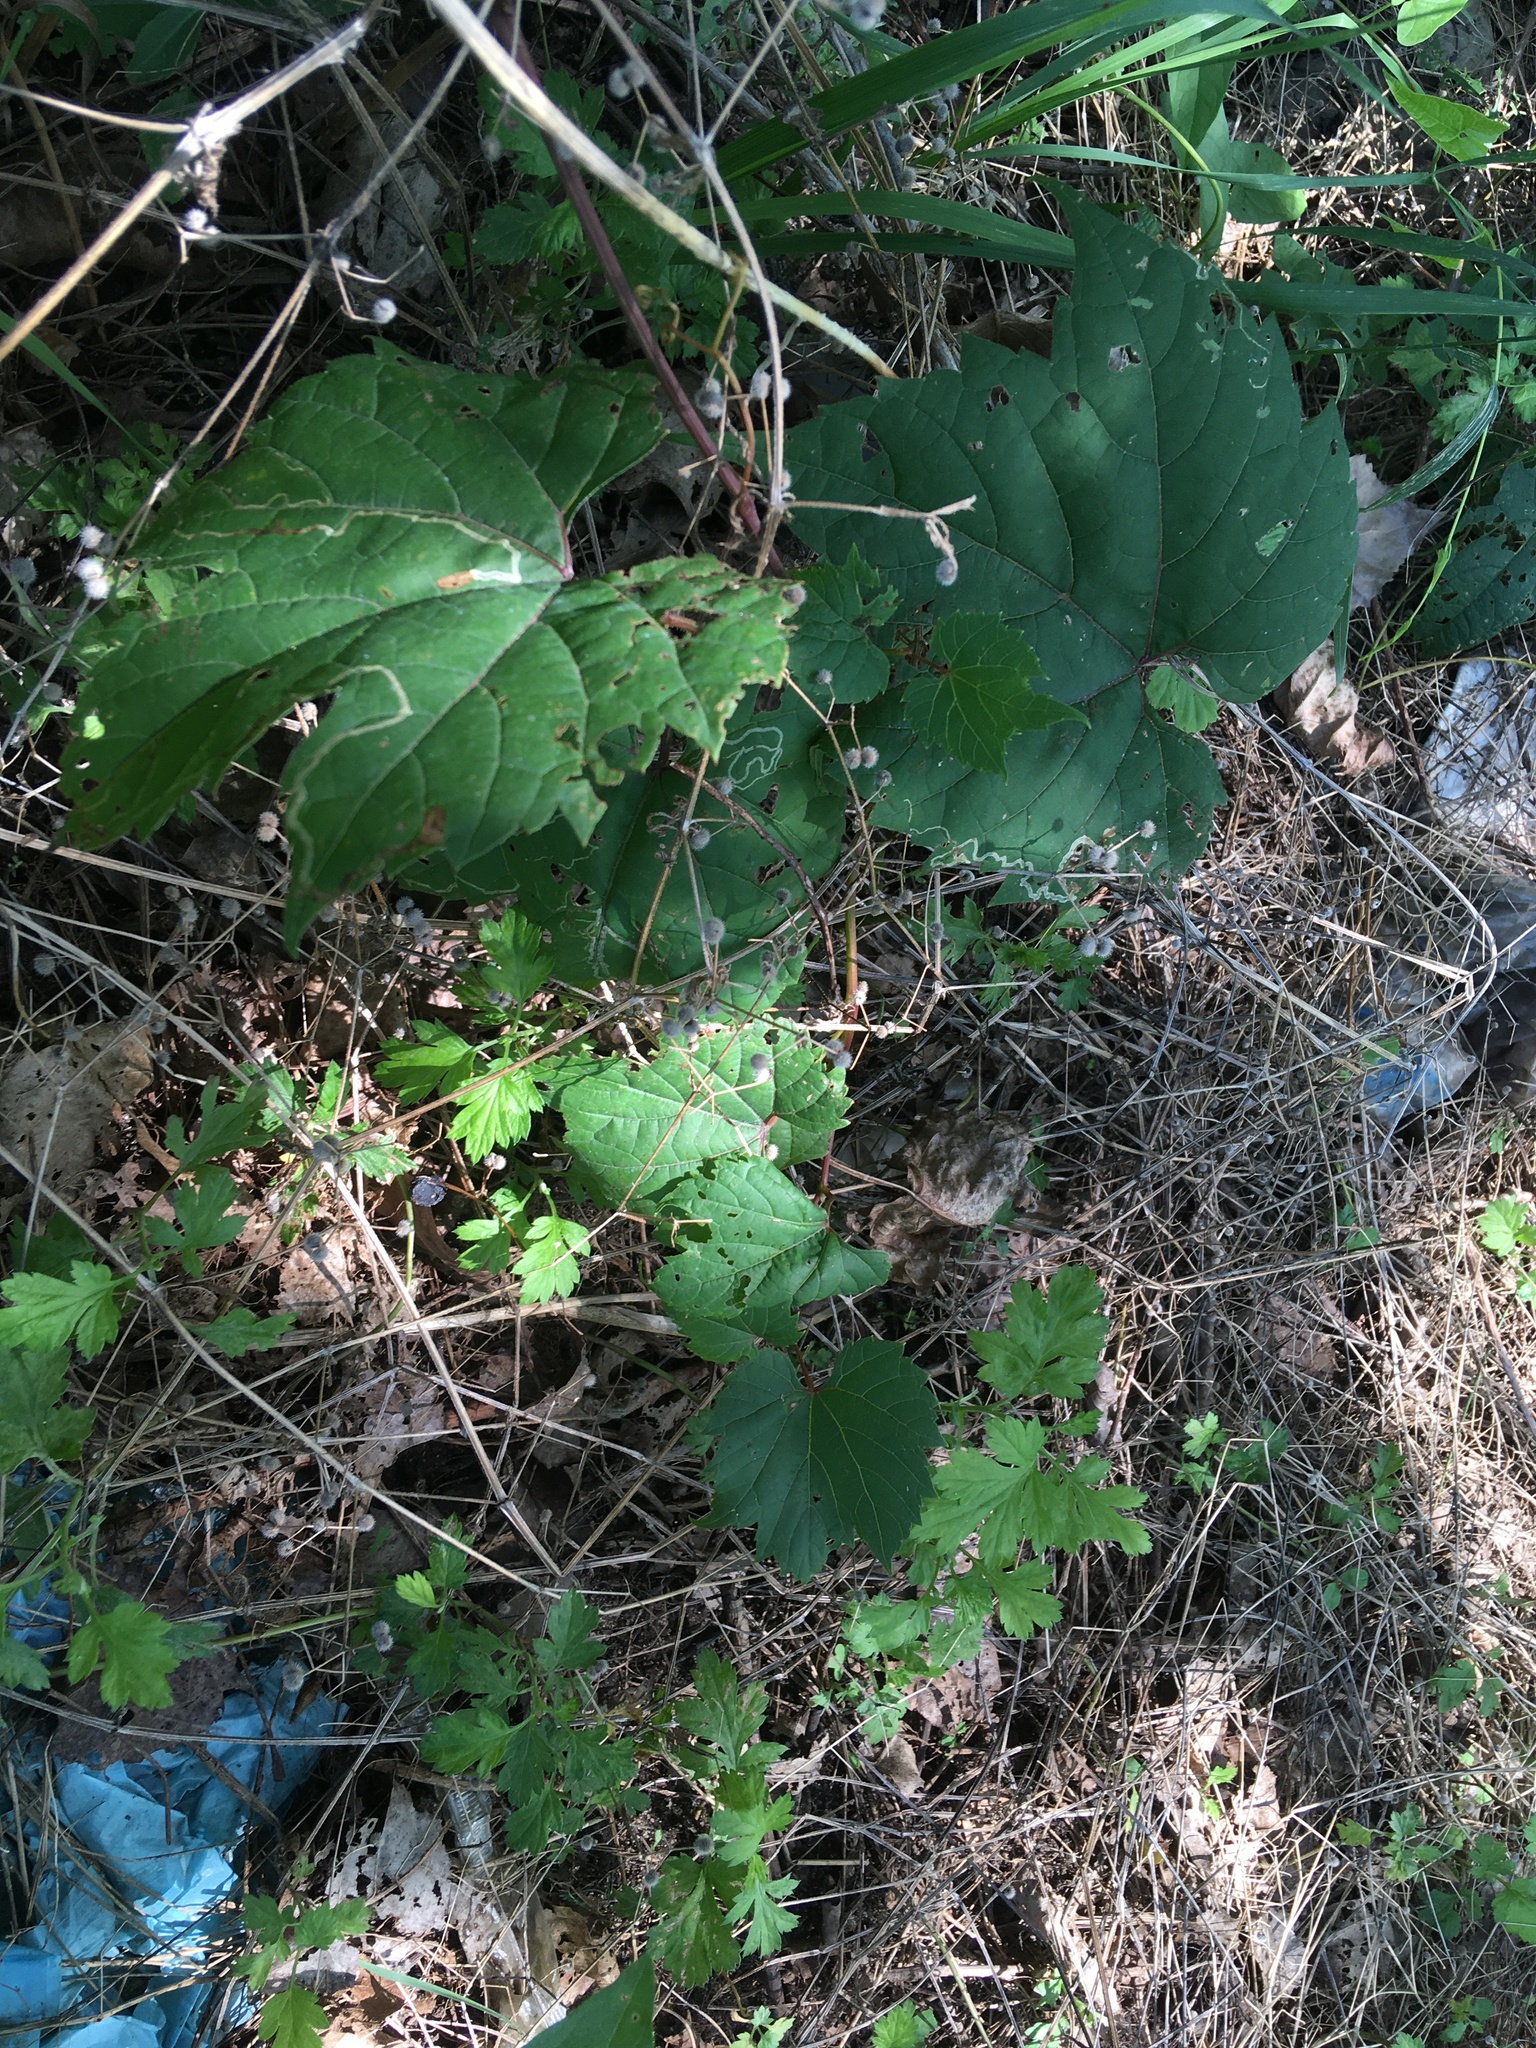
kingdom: Plantae
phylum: Tracheophyta
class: Magnoliopsida
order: Vitales
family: Vitaceae
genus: Vitis
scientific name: Vitis riparia
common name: Frost grape
